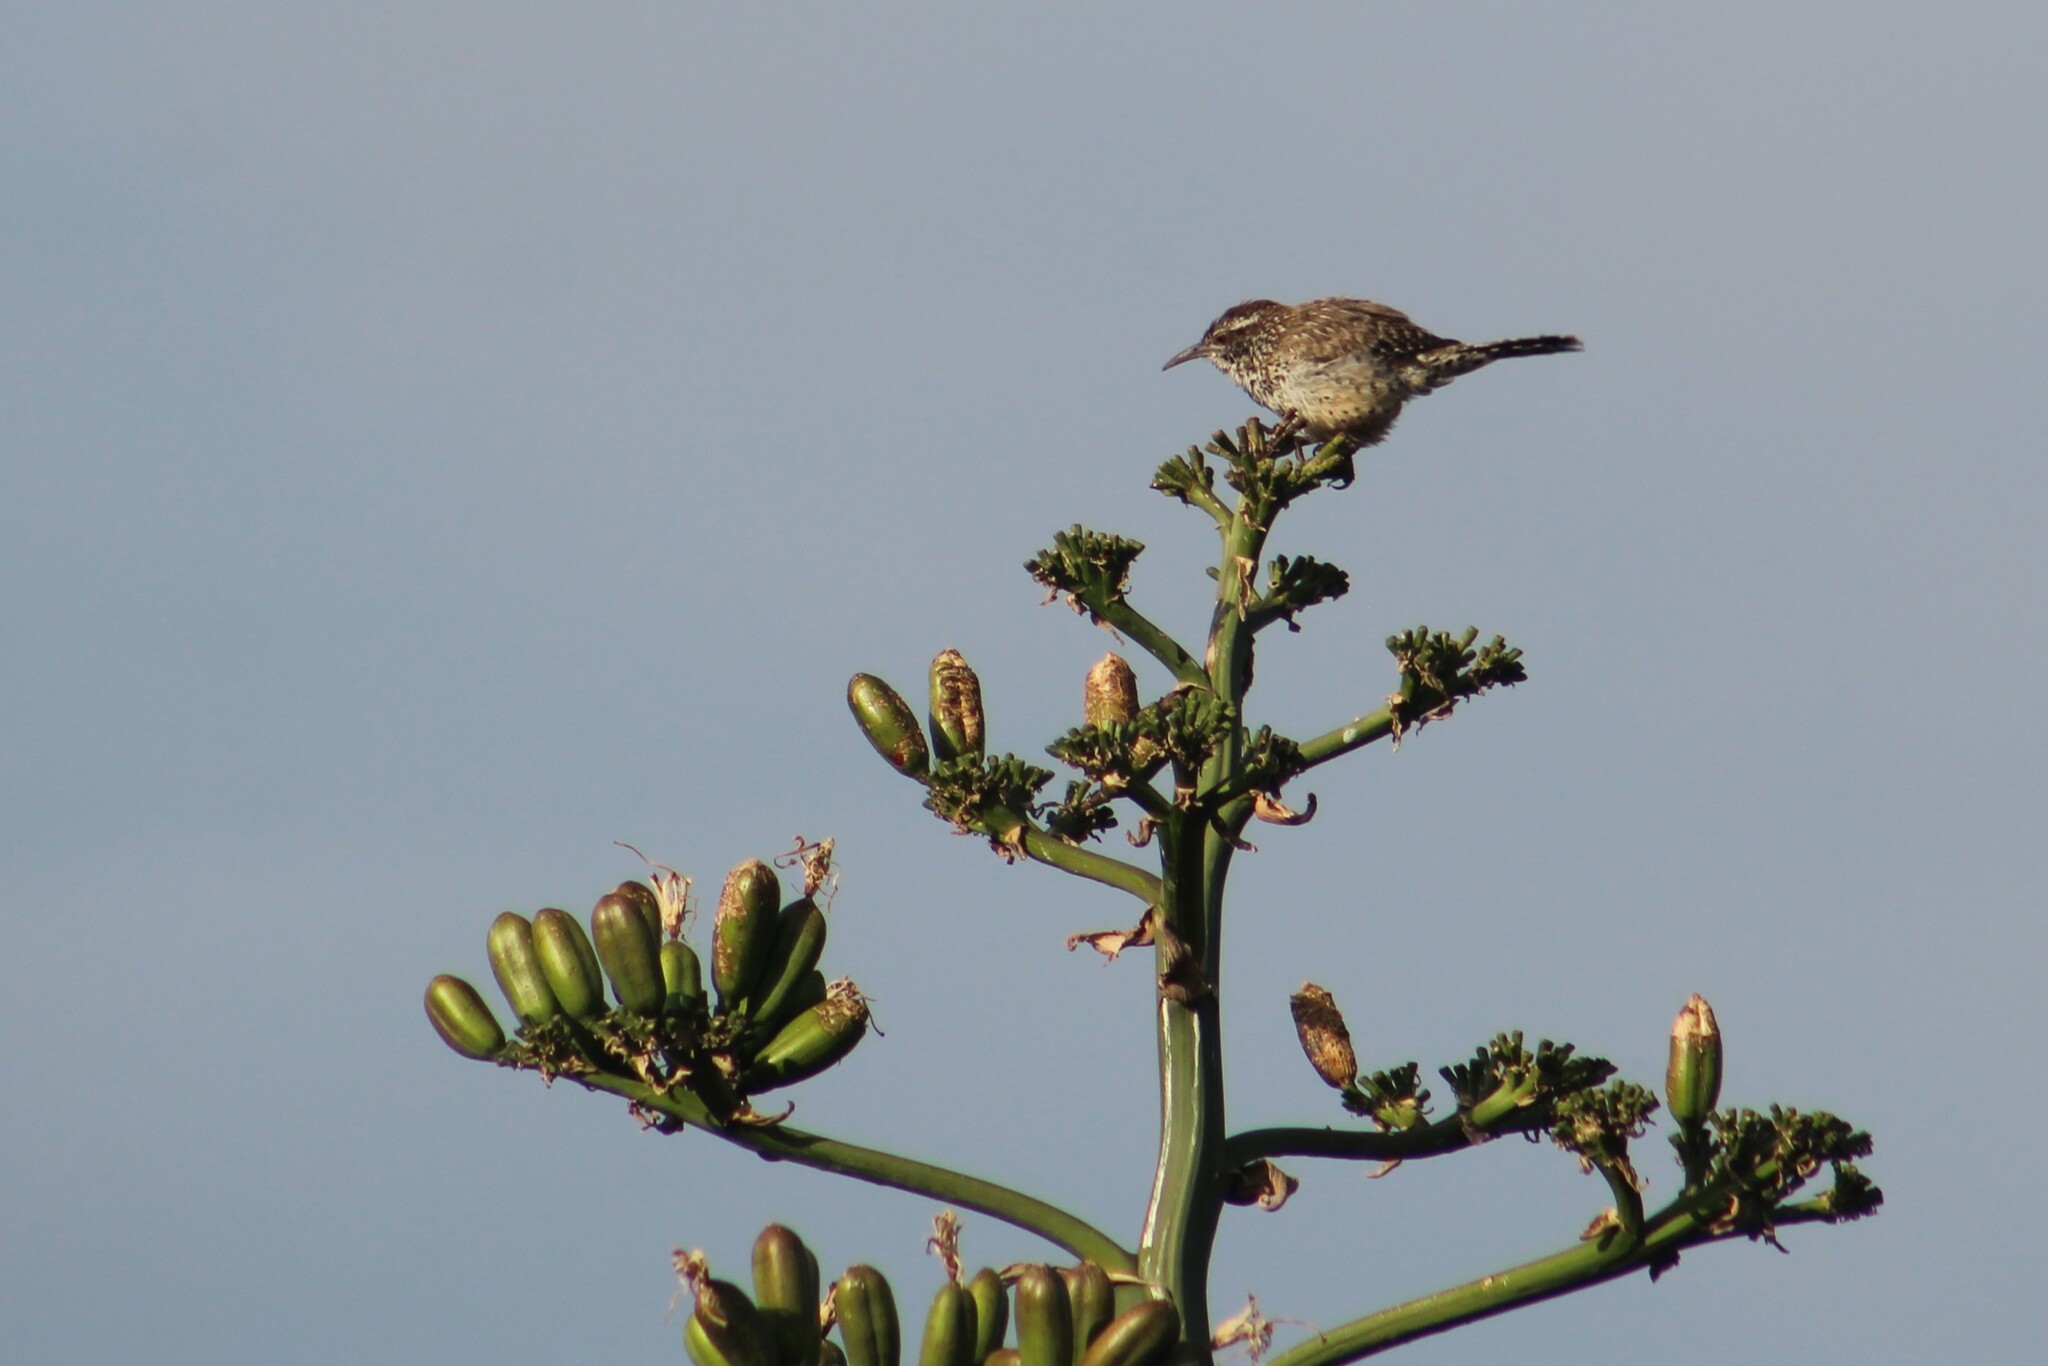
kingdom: Animalia
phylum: Chordata
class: Aves
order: Passeriformes
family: Troglodytidae
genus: Campylorhynchus
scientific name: Campylorhynchus brunneicapillus
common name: Cactus wren
